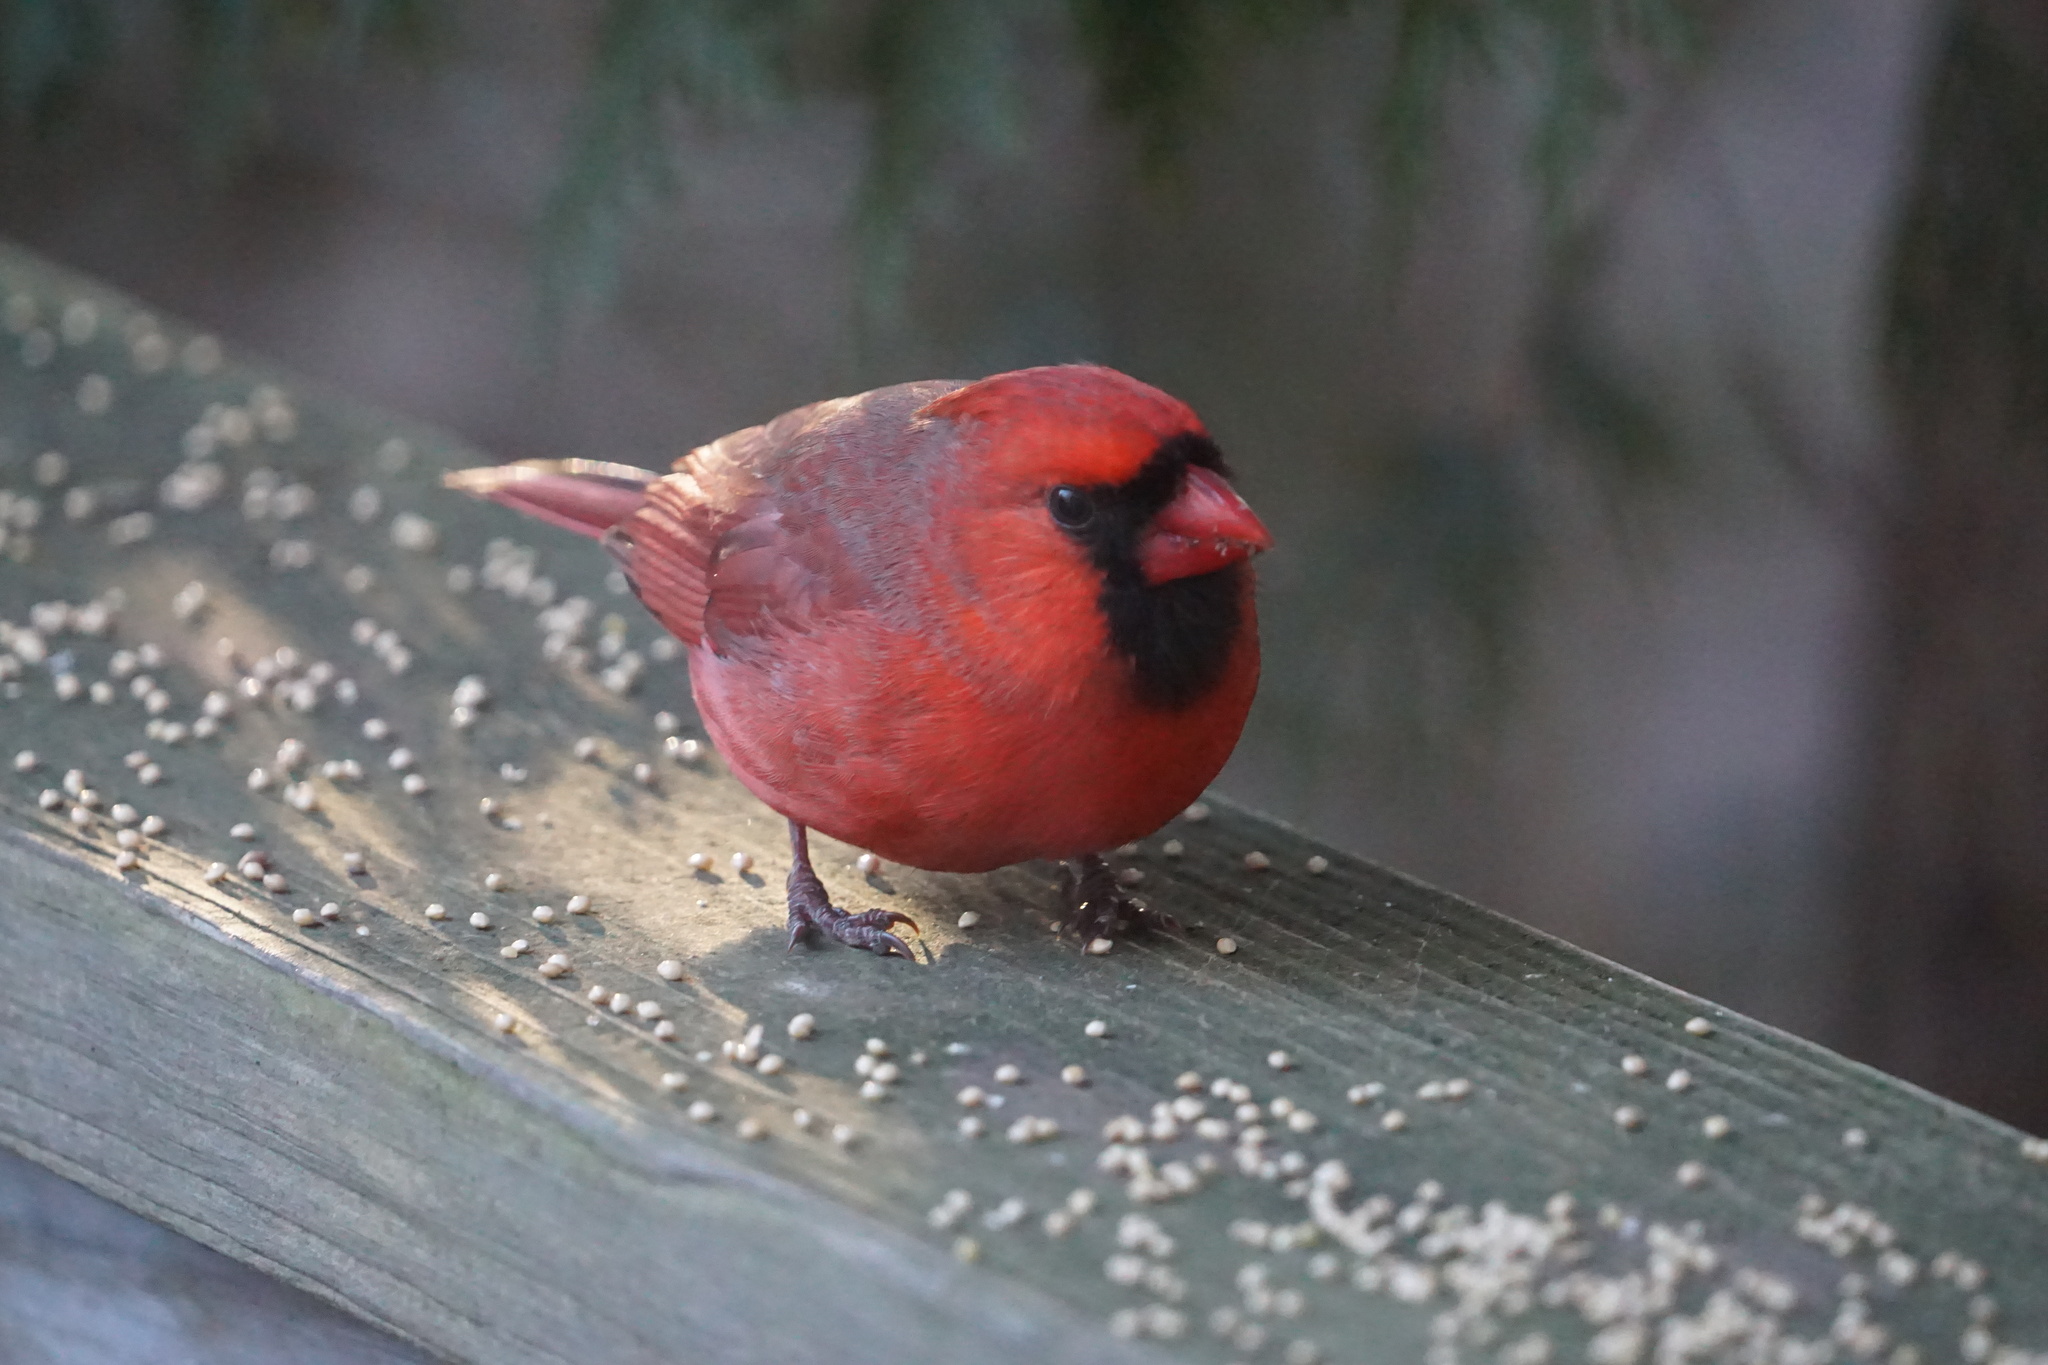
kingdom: Animalia
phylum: Chordata
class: Aves
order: Passeriformes
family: Cardinalidae
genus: Cardinalis
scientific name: Cardinalis cardinalis
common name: Northern cardinal
